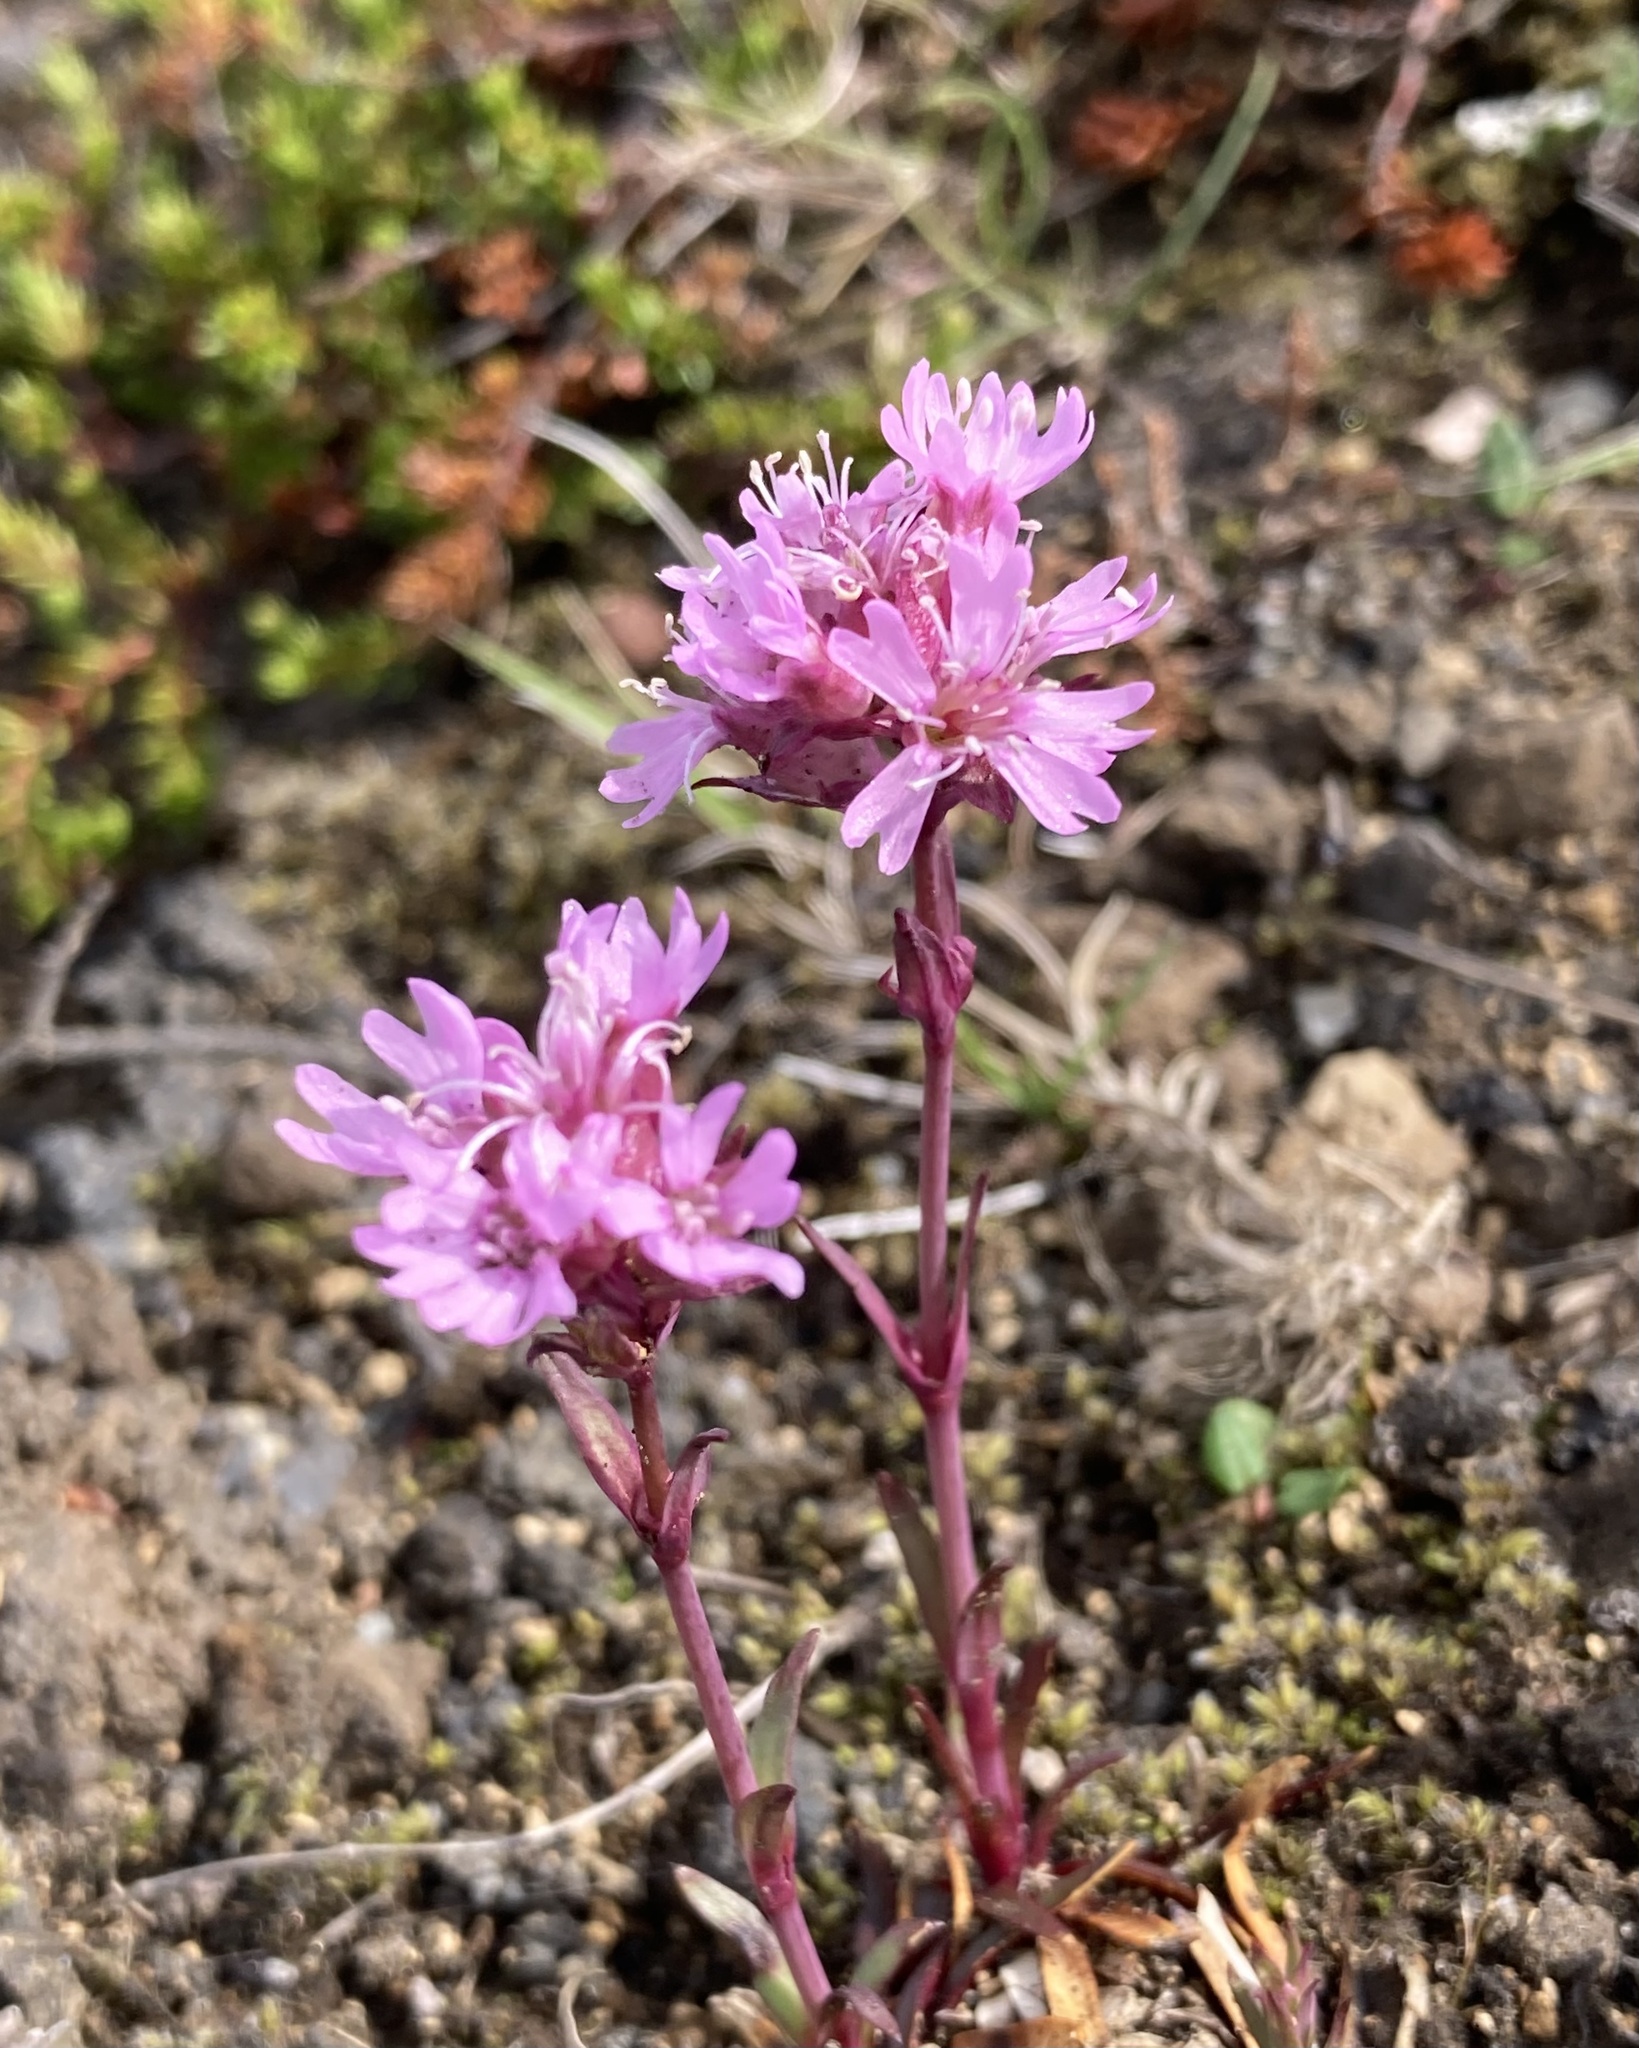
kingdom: Plantae
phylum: Tracheophyta
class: Magnoliopsida
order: Caryophyllales
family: Caryophyllaceae
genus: Viscaria
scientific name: Viscaria alpina
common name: Alpine campion
